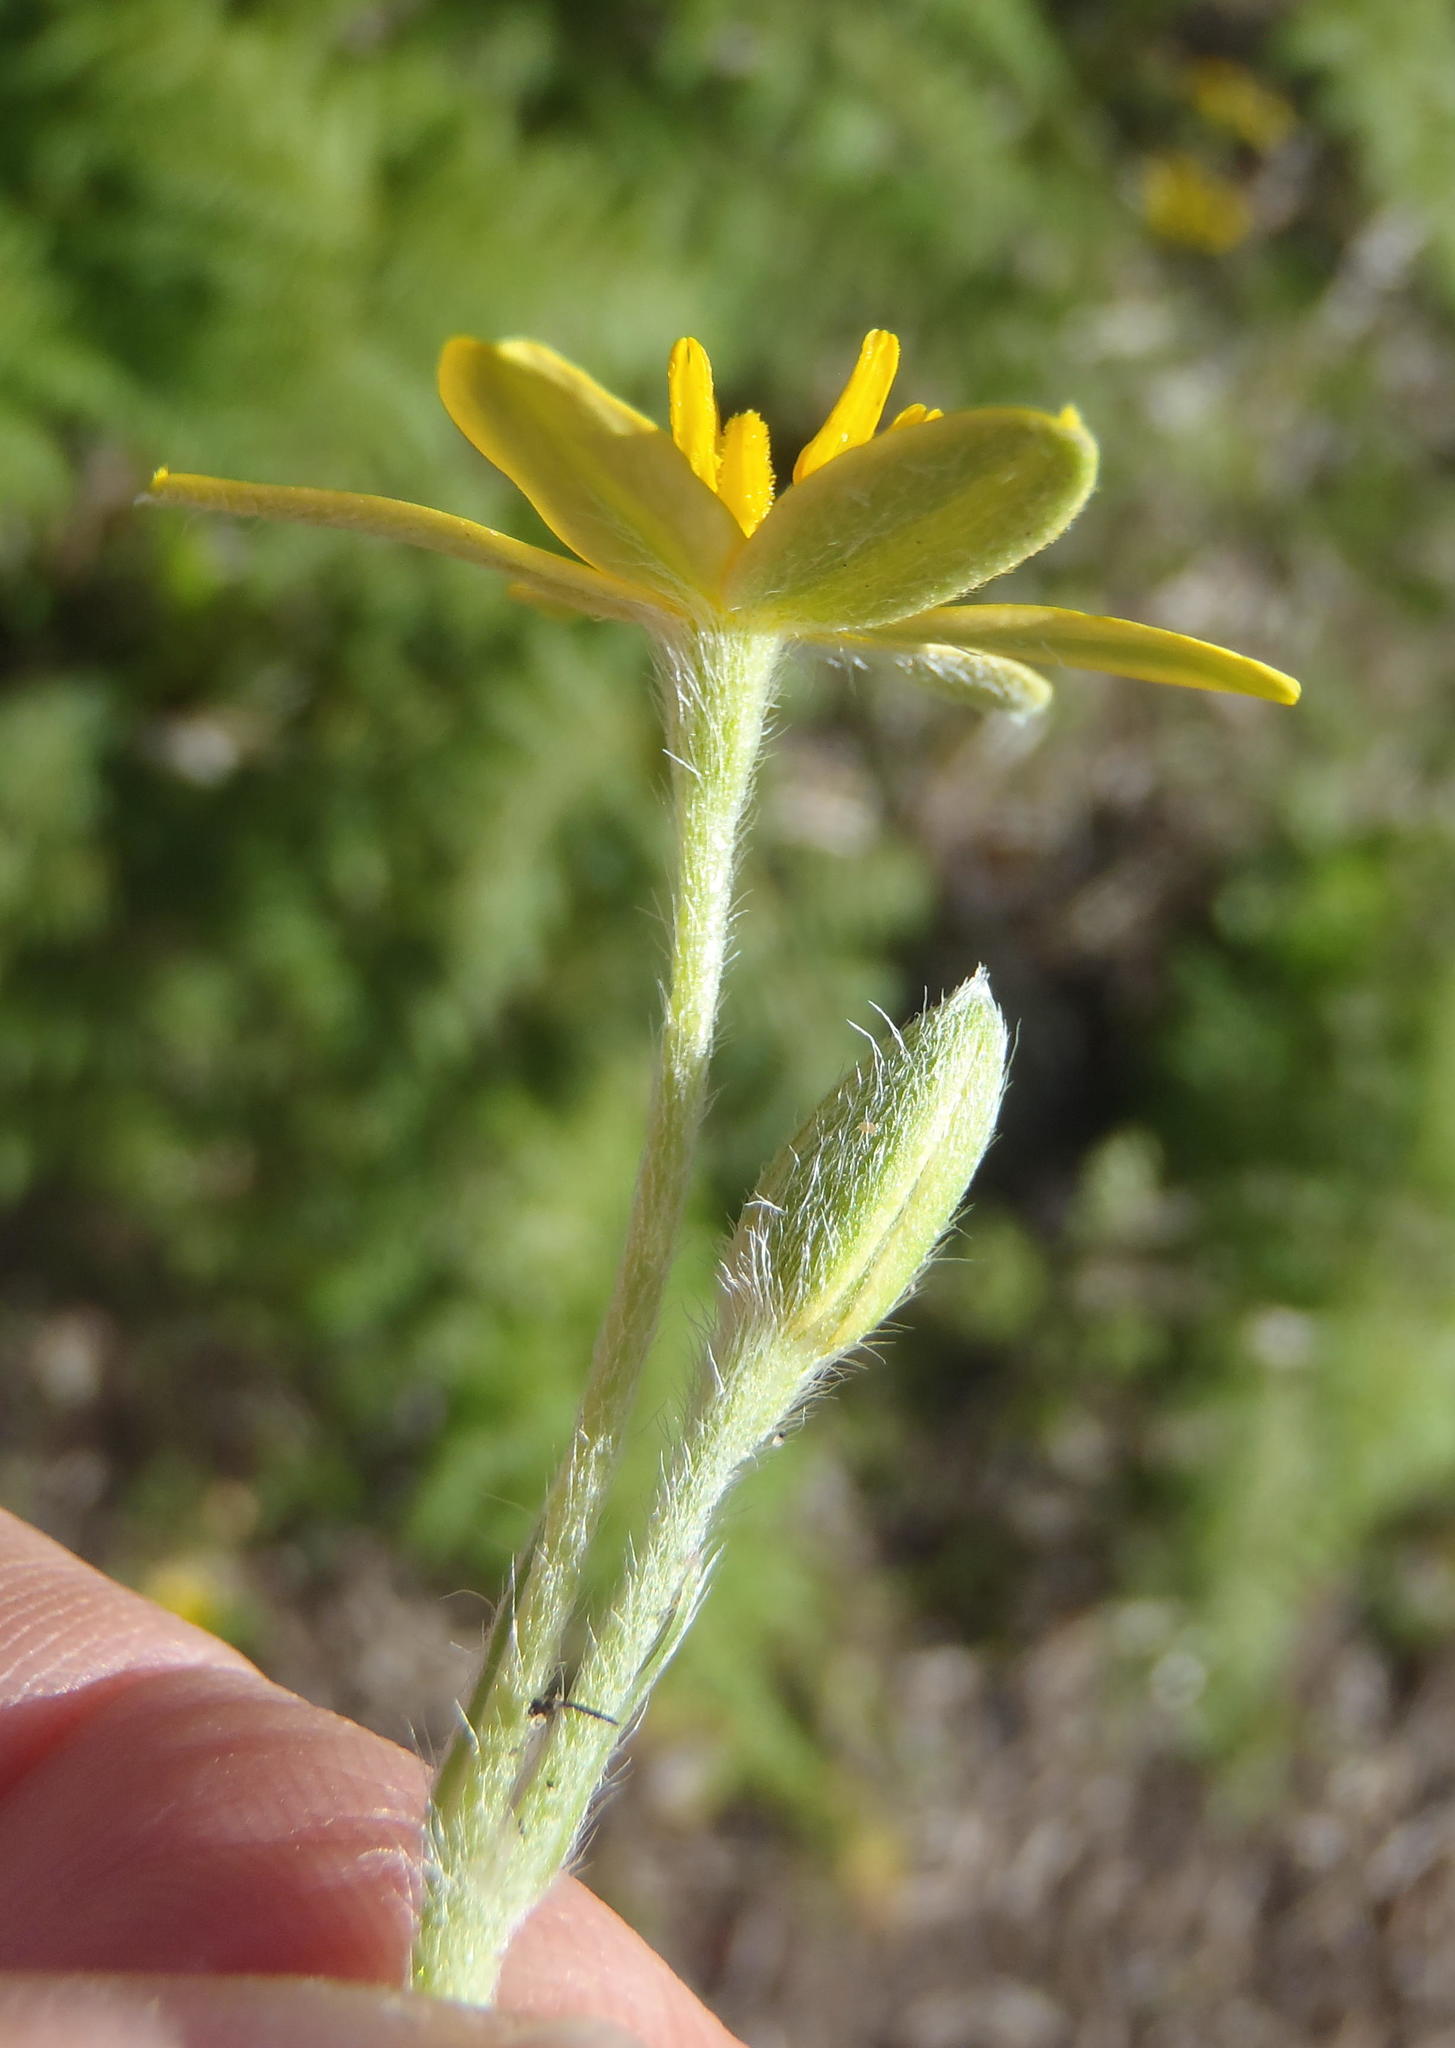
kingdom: Plantae
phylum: Tracheophyta
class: Liliopsida
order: Asparagales
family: Hypoxidaceae
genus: Hypoxis
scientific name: Hypoxis villosa
